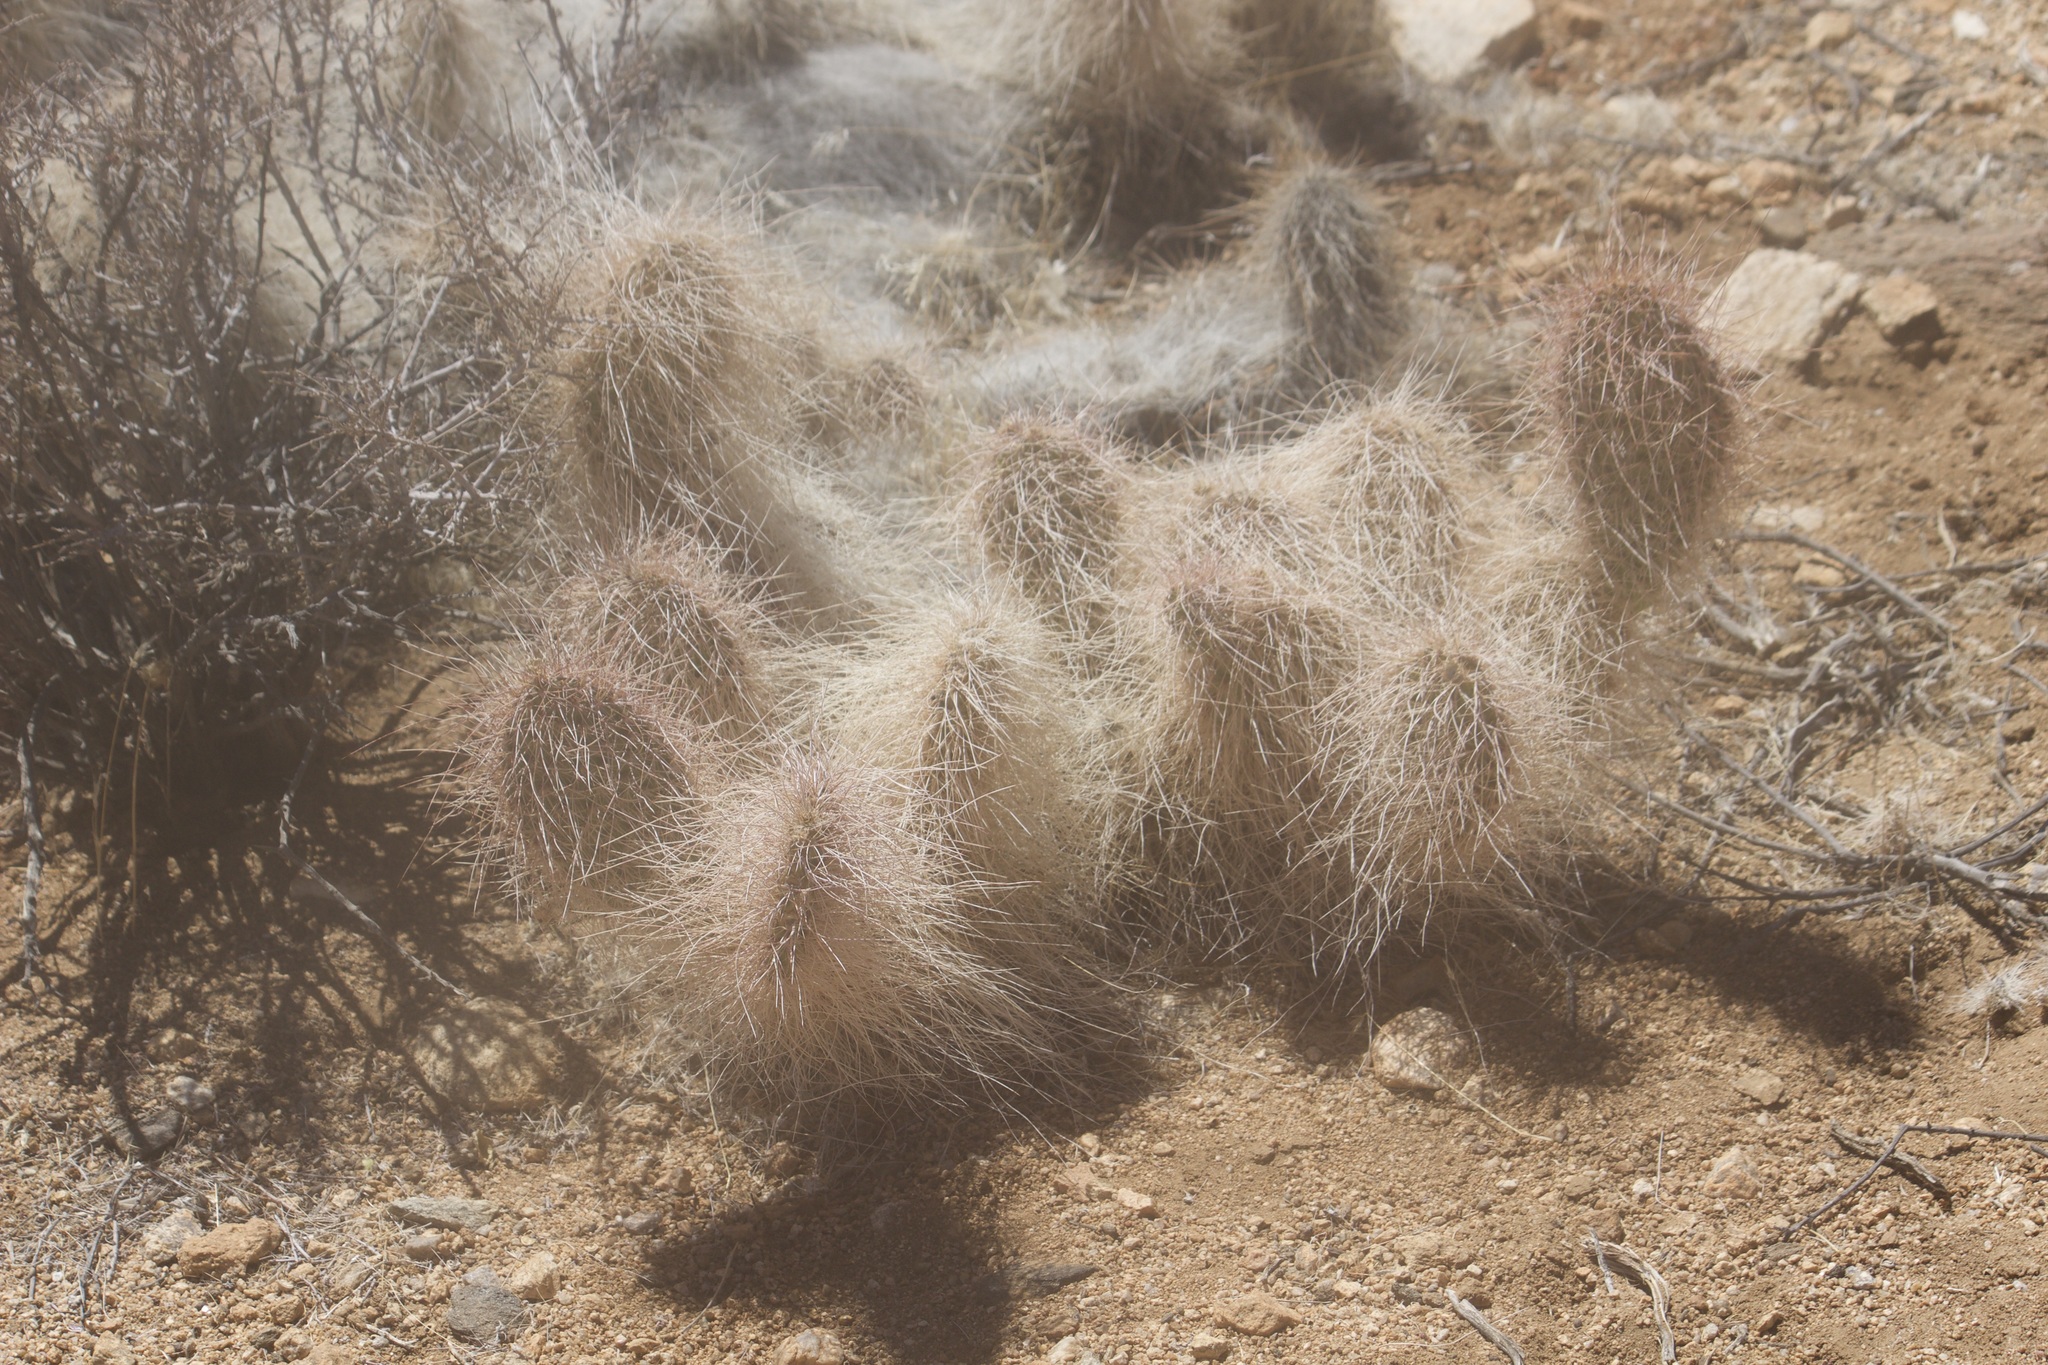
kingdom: Plantae
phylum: Tracheophyta
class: Magnoliopsida
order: Caryophyllales
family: Cactaceae
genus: Opuntia
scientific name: Opuntia polyacantha
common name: Plains prickly-pear
